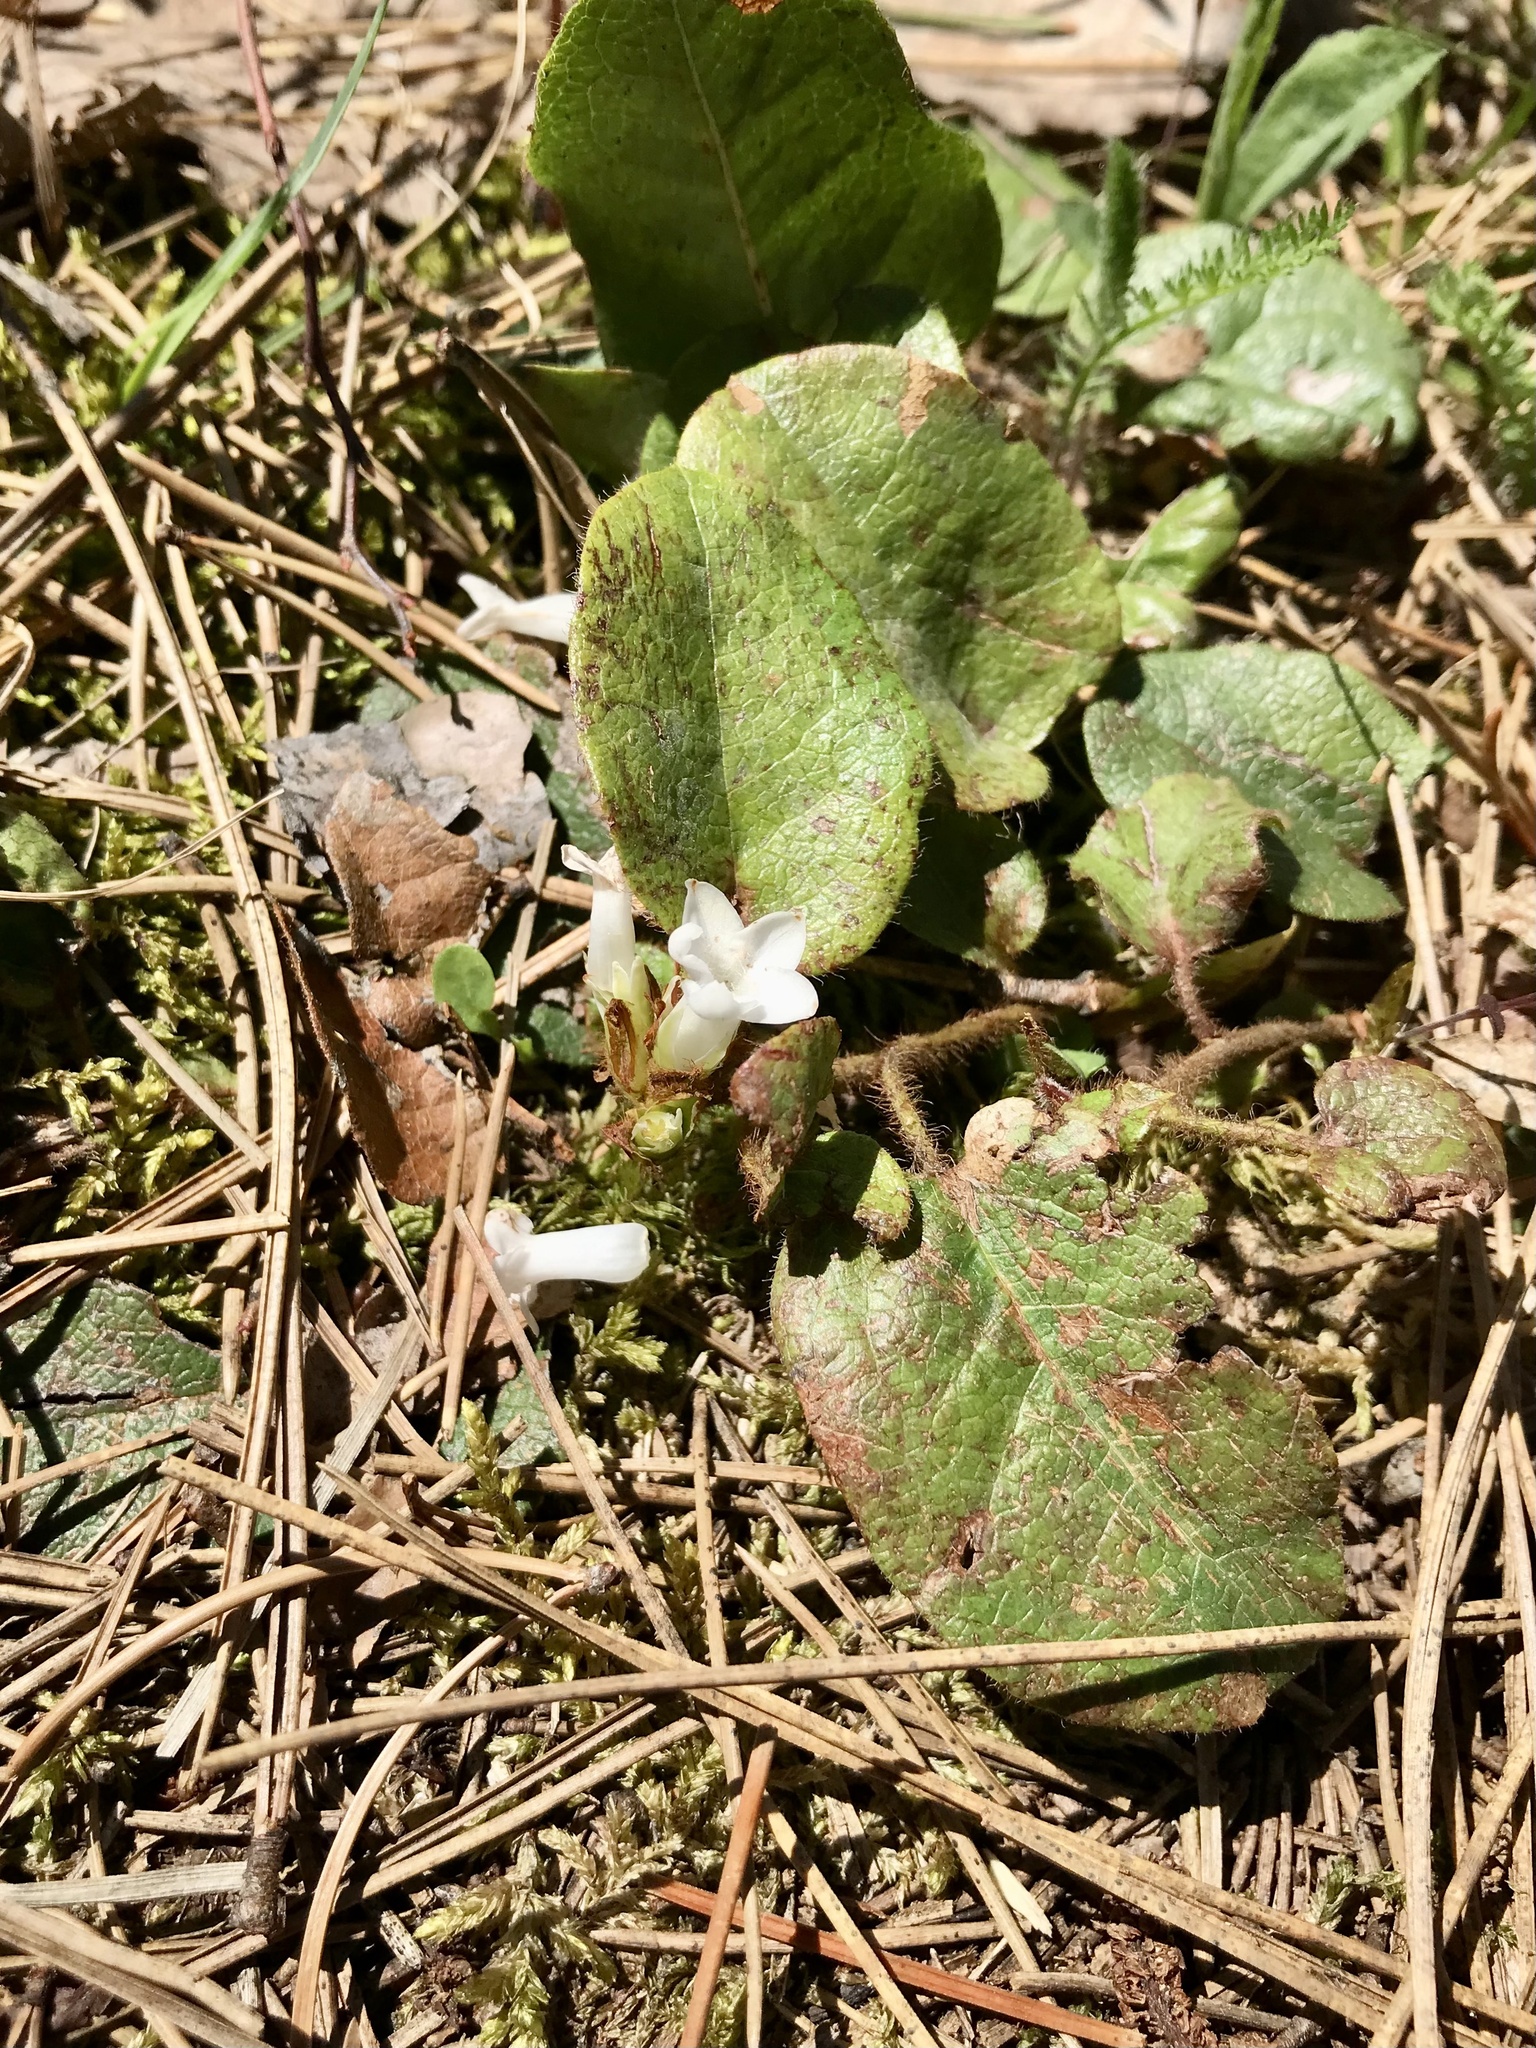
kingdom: Plantae
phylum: Tracheophyta
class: Magnoliopsida
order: Ericales
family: Ericaceae
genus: Epigaea
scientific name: Epigaea repens
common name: Gravelroot
